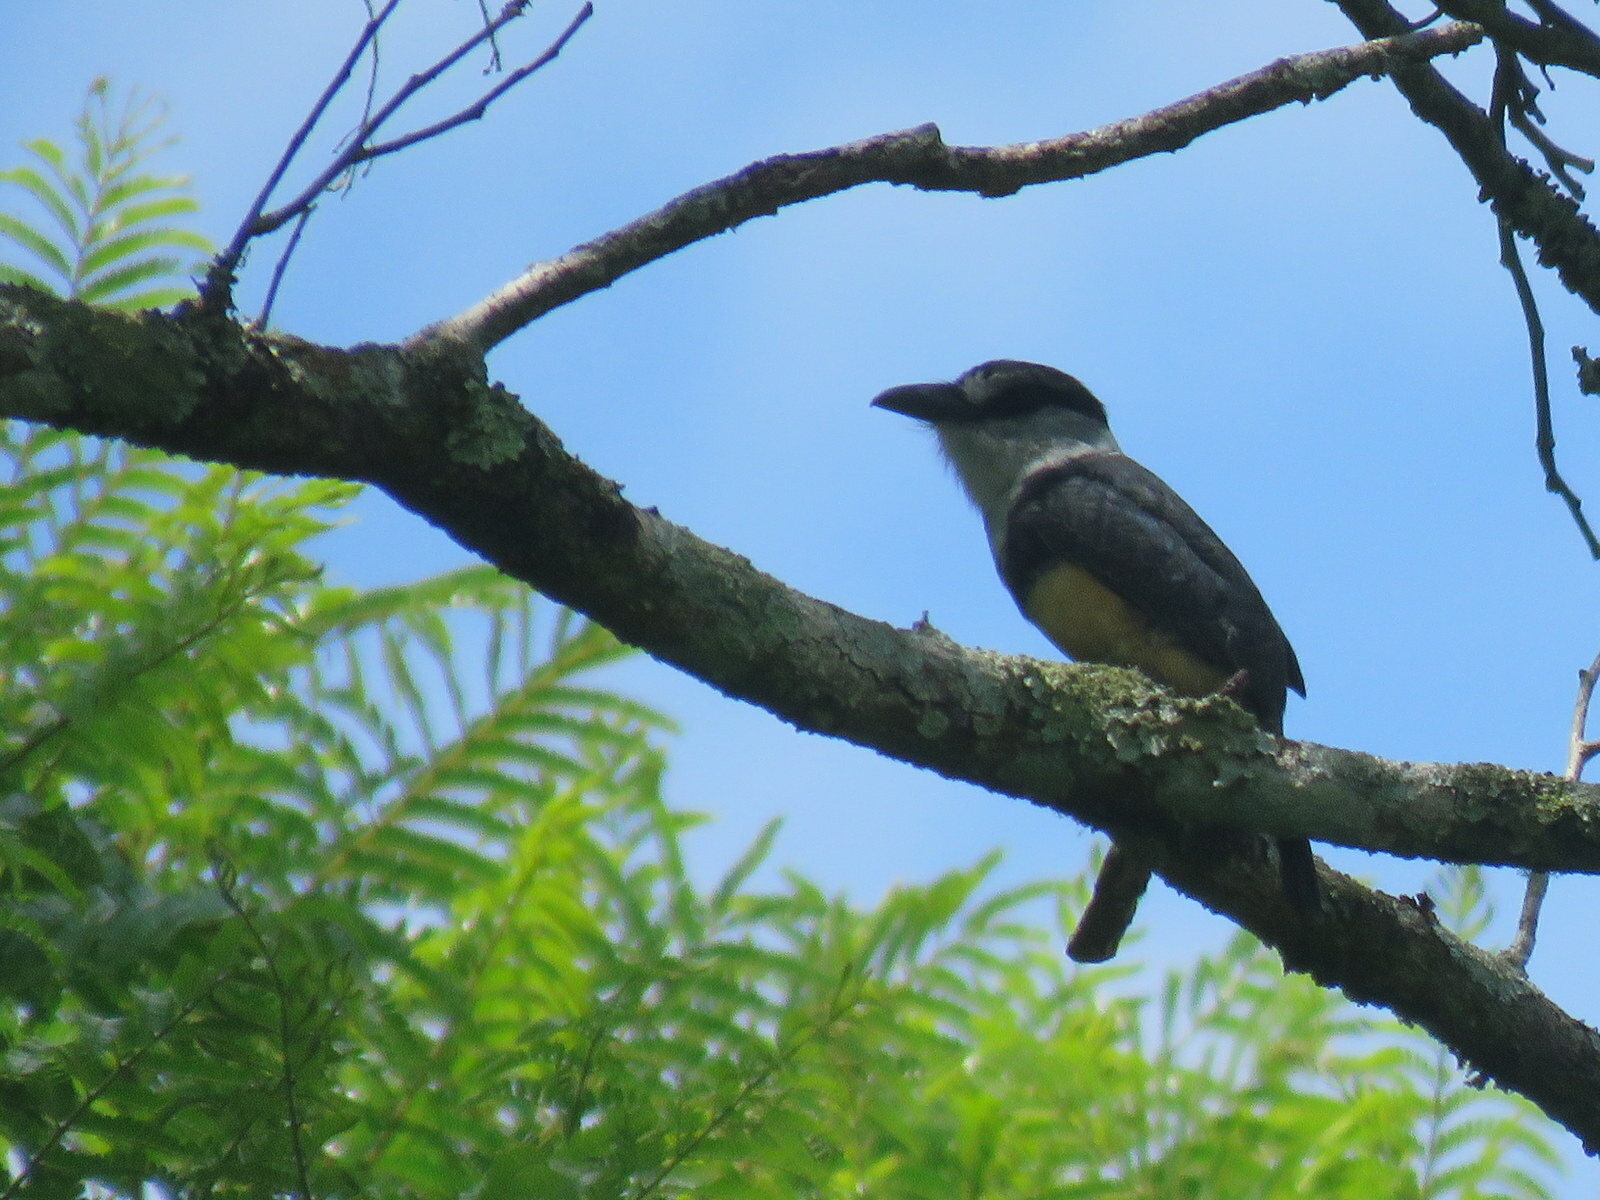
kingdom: Animalia
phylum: Chordata
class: Aves
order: Piciformes
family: Bucconidae
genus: Notharchus
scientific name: Notharchus swainsoni
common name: Buff-bellied puffbird
